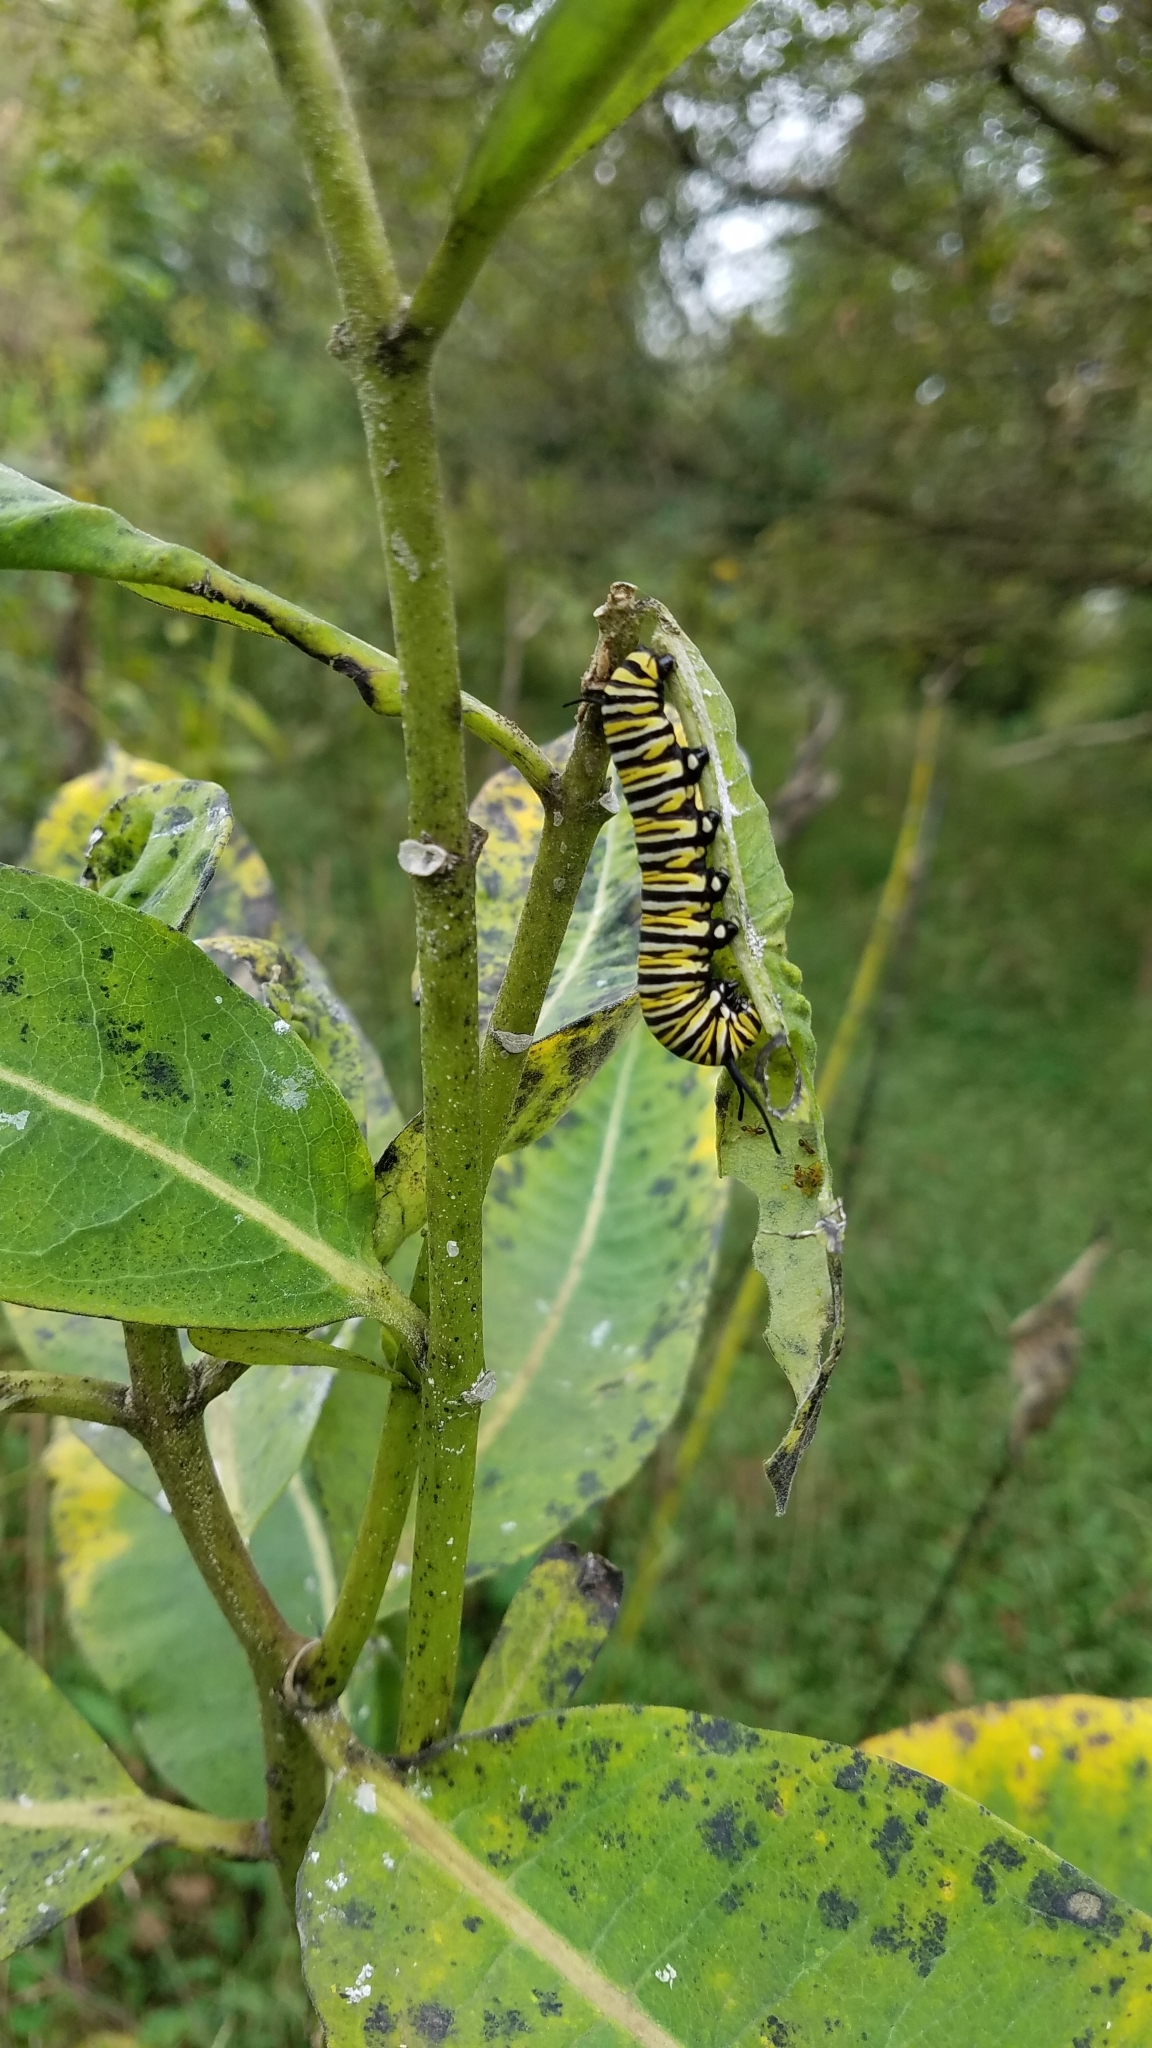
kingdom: Animalia
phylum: Arthropoda
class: Insecta
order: Lepidoptera
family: Nymphalidae
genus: Danaus
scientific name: Danaus plexippus
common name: Monarch
